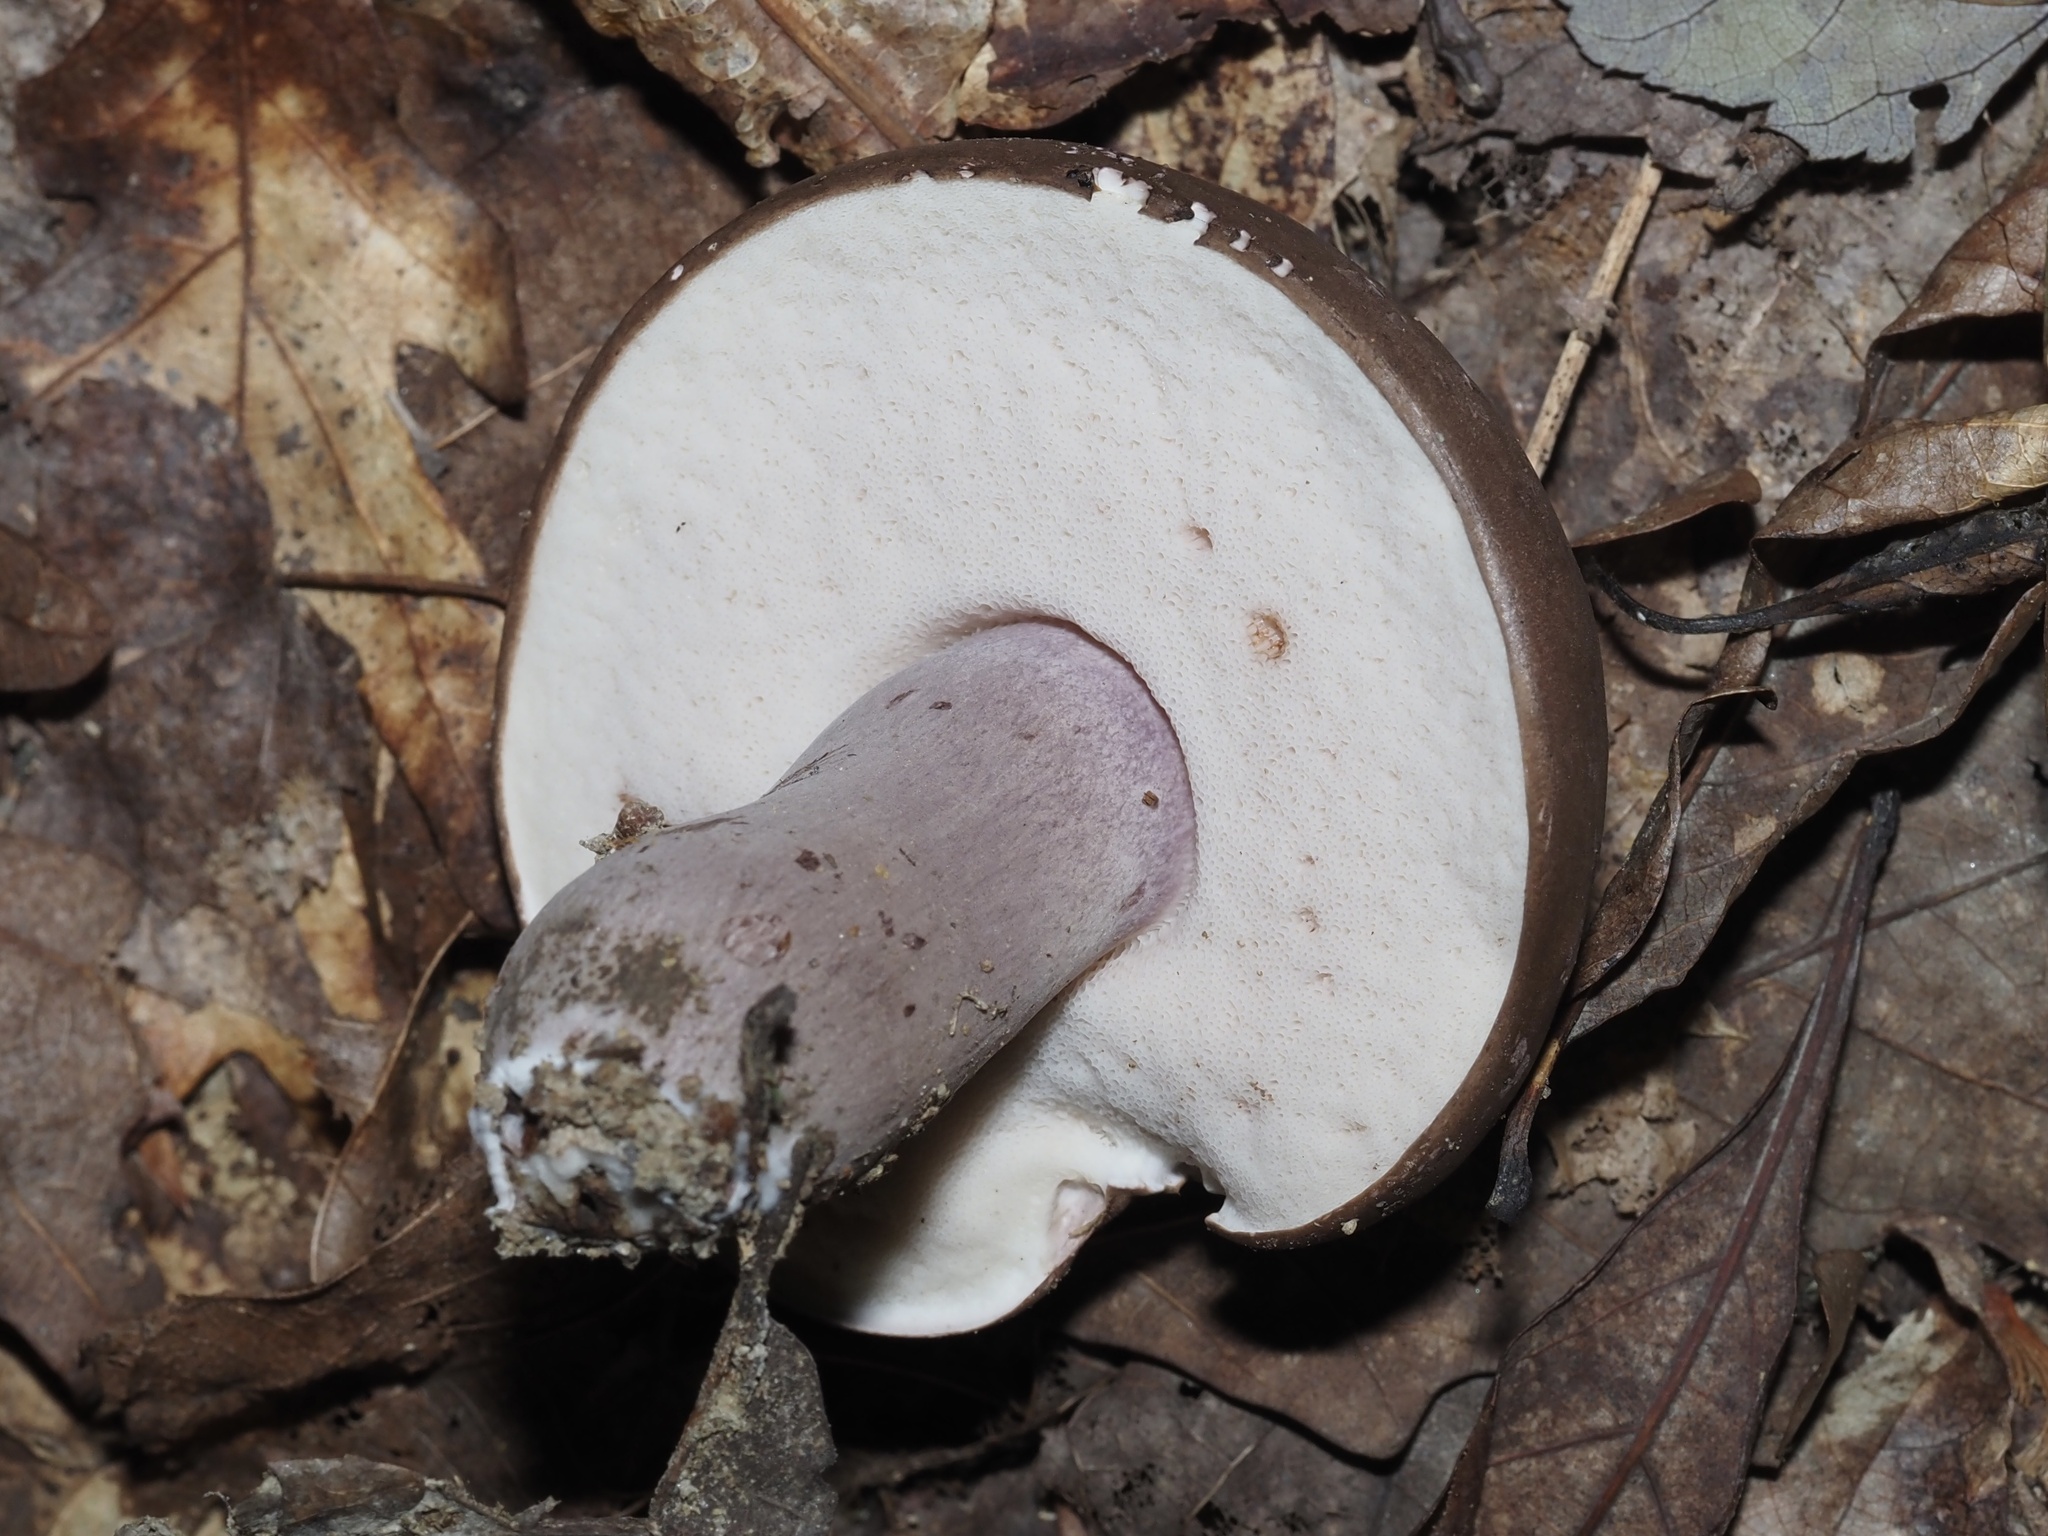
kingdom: Fungi
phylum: Basidiomycota
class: Agaricomycetes
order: Boletales
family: Boletaceae
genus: Tylopilus
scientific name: Tylopilus plumbeoviolaceus
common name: Violet gray bolete
